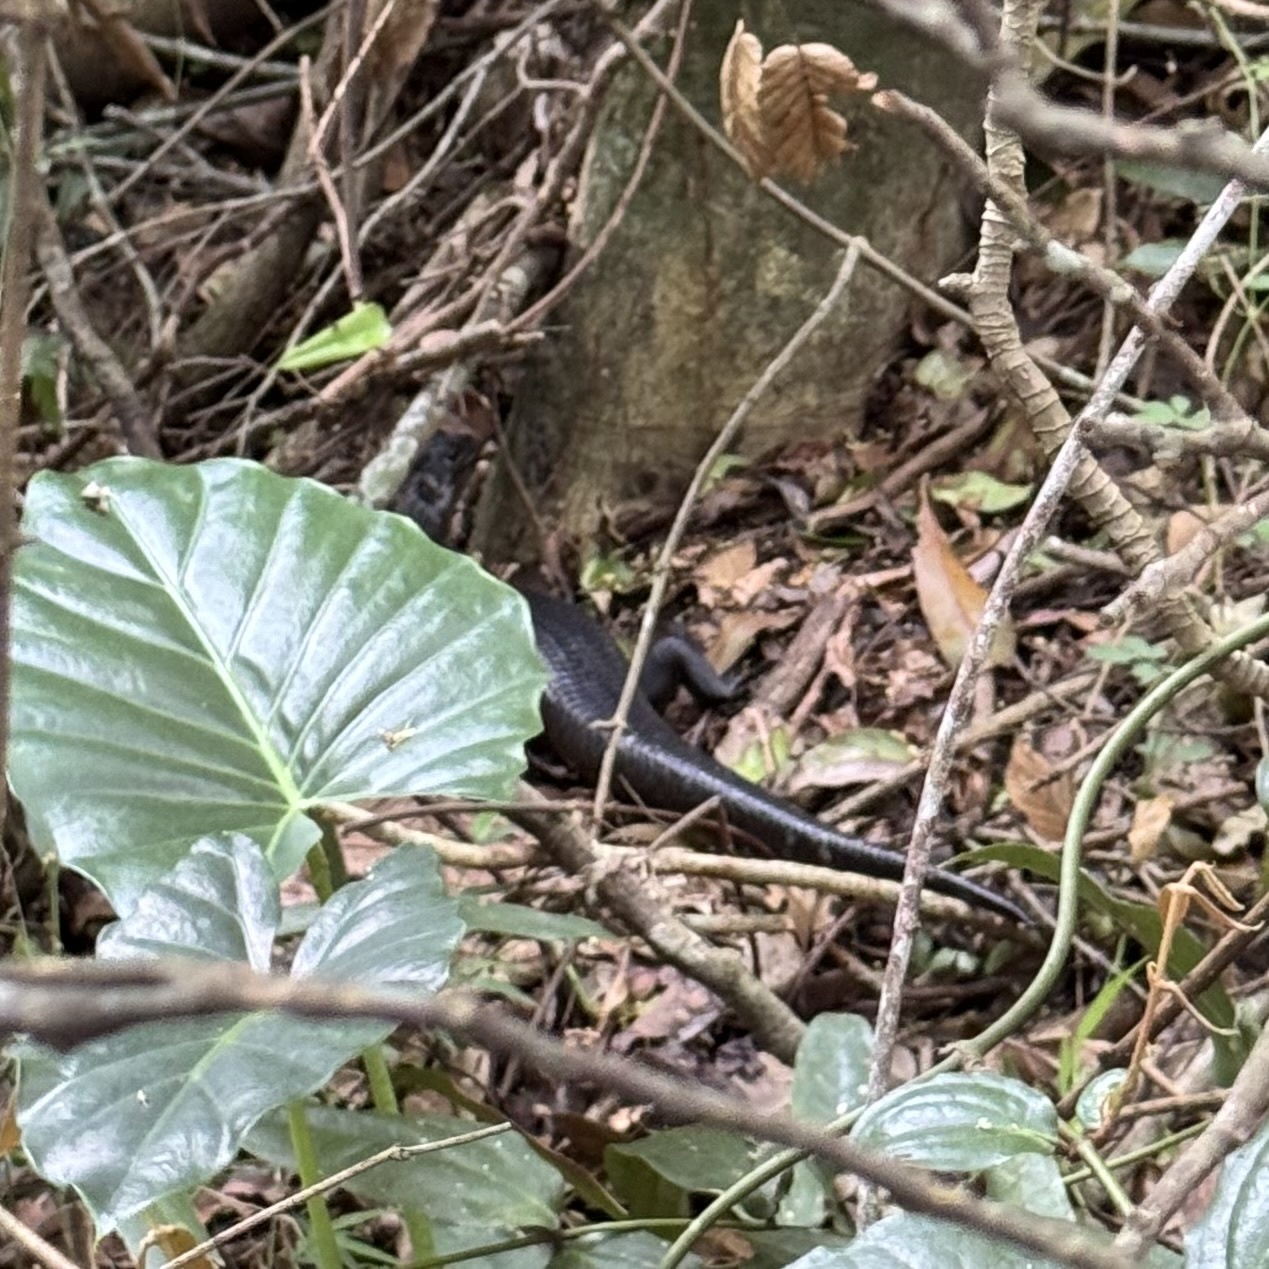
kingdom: Animalia
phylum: Chordata
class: Squamata
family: Scincidae
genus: Bellatorias
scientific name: Bellatorias major
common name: Land mullet
